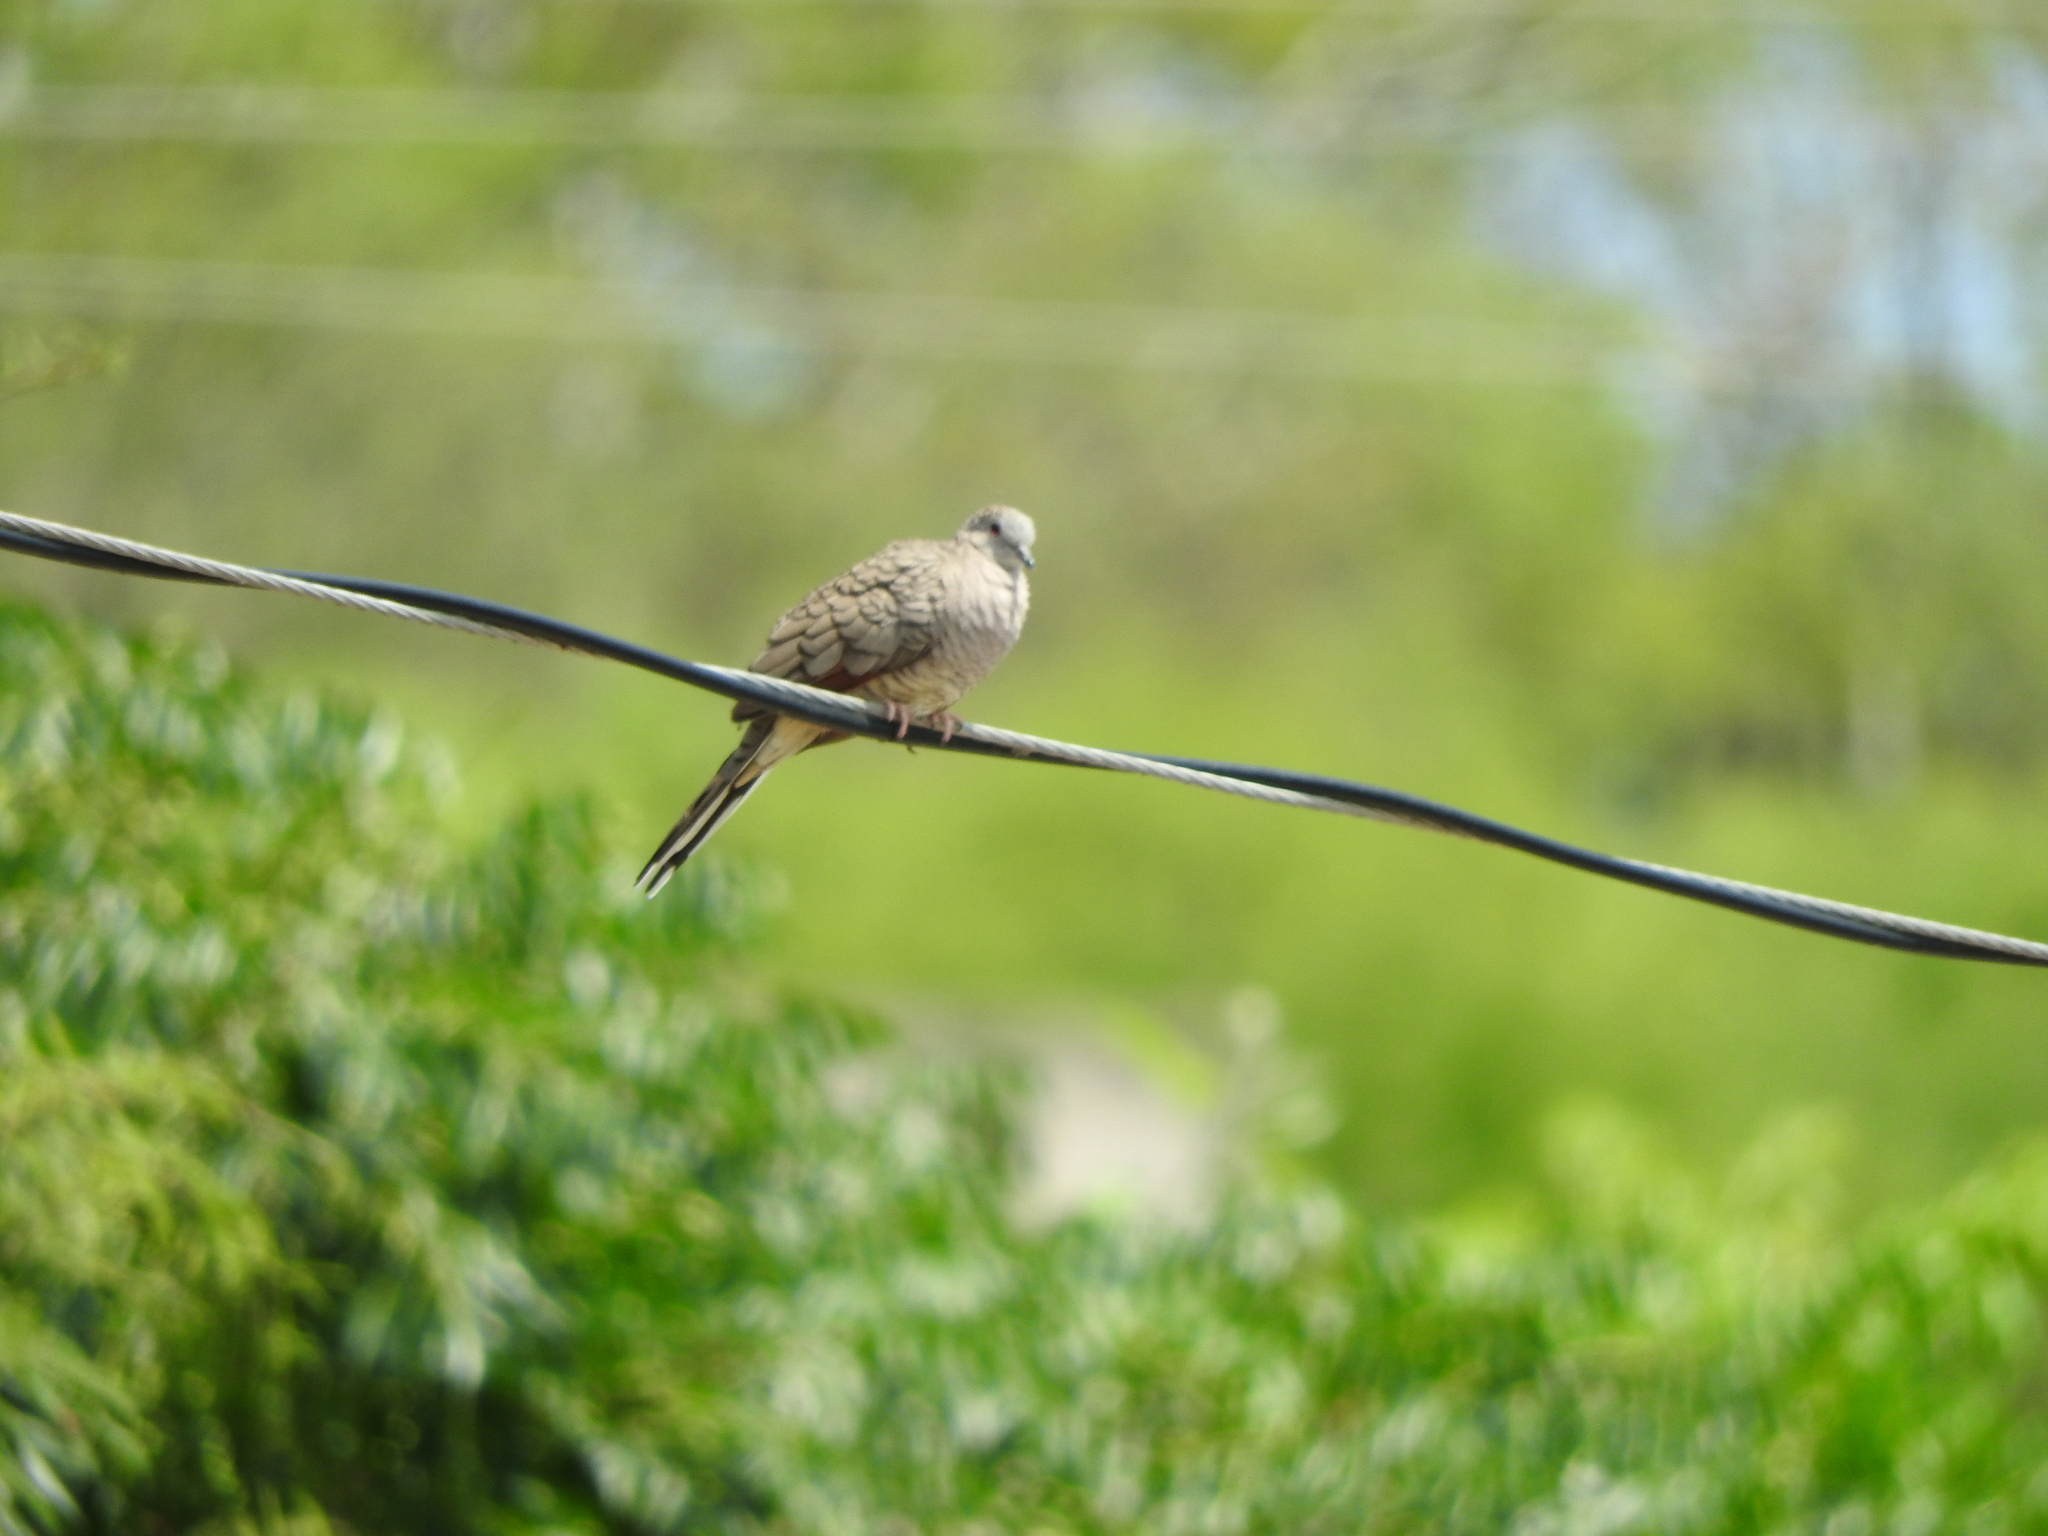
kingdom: Animalia
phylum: Chordata
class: Aves
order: Columbiformes
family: Columbidae
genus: Columbina
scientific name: Columbina inca
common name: Inca dove
